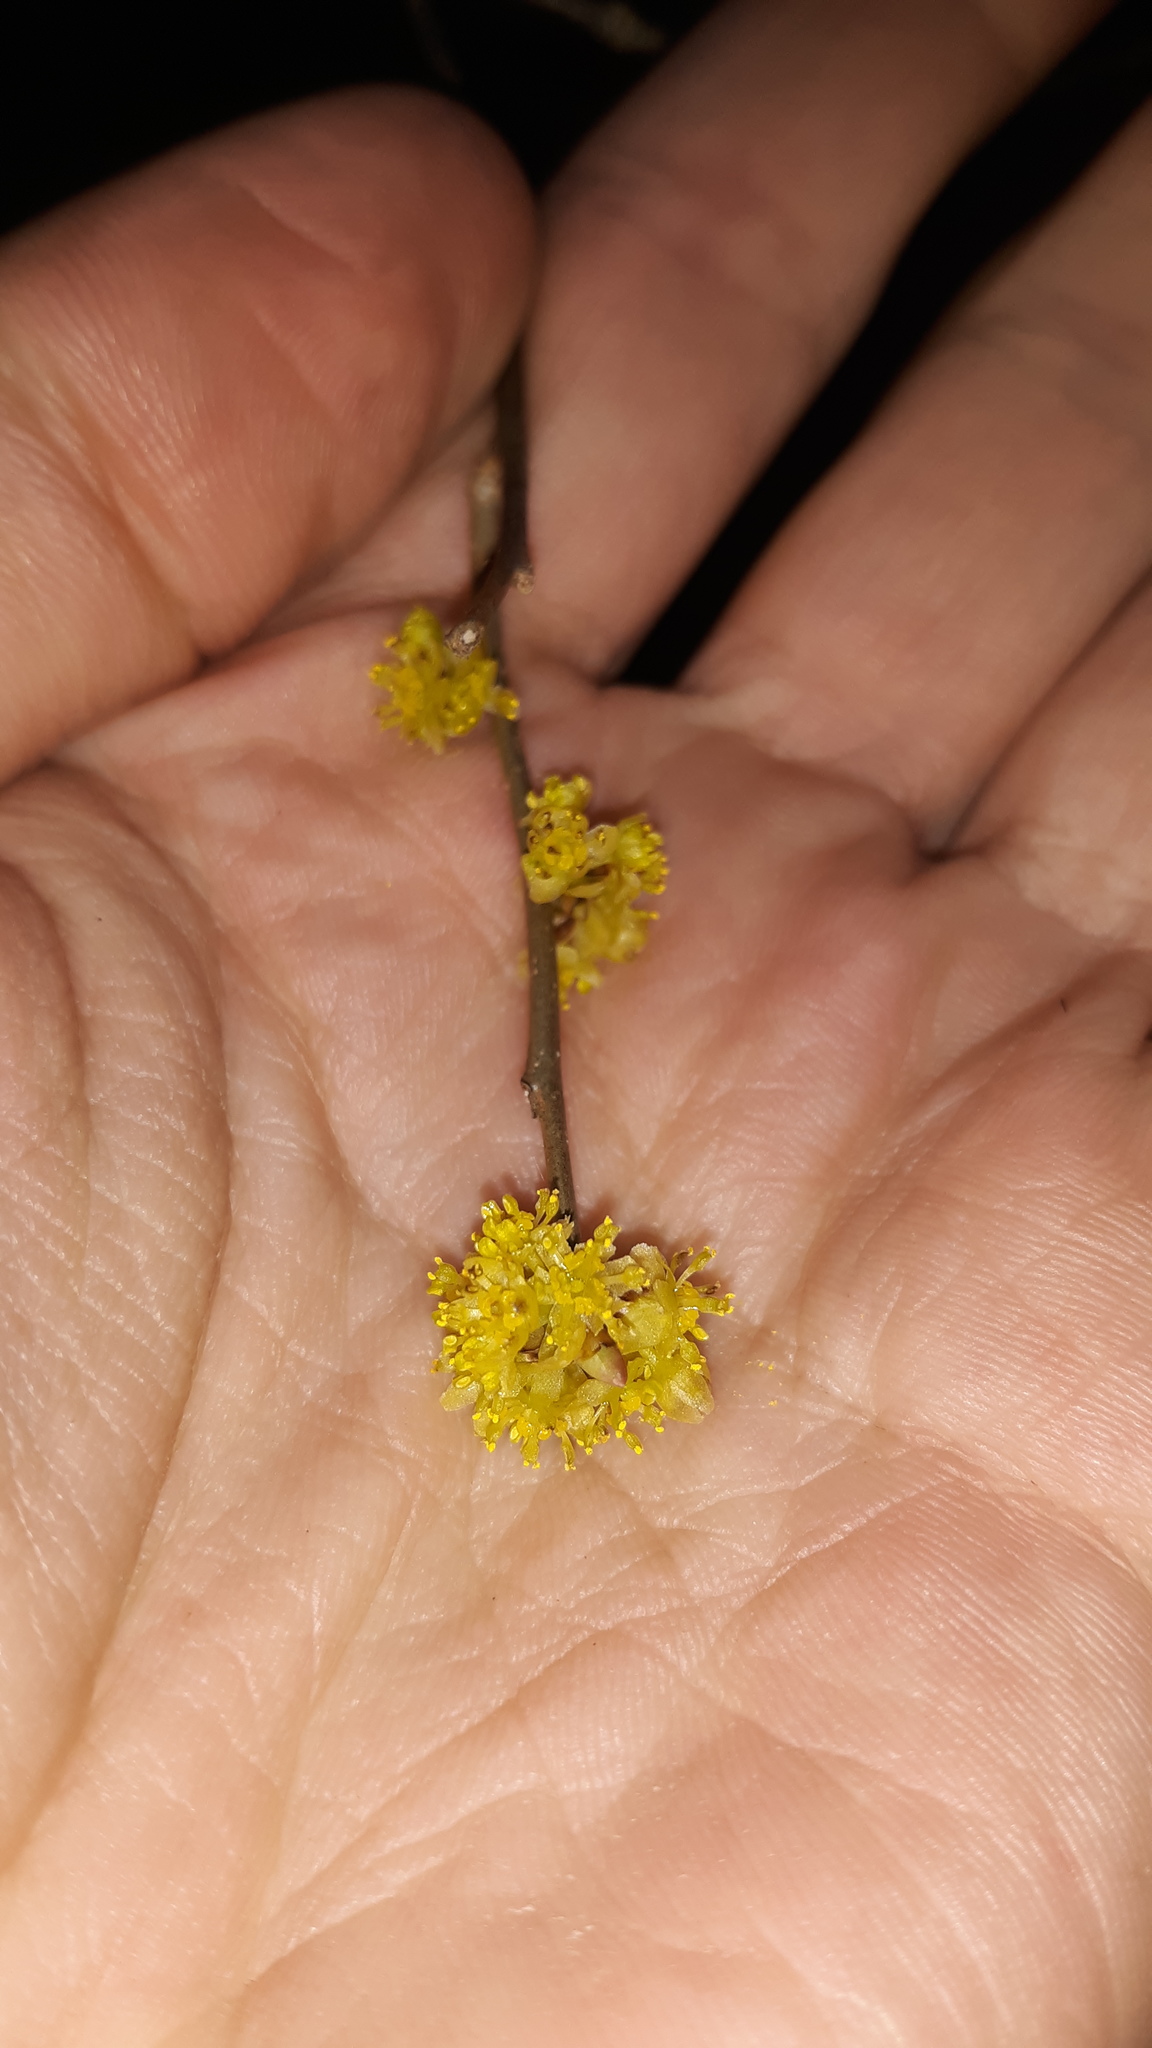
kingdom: Plantae
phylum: Tracheophyta
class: Magnoliopsida
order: Laurales
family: Lauraceae
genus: Lindera
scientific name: Lindera benzoin
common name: Spicebush
